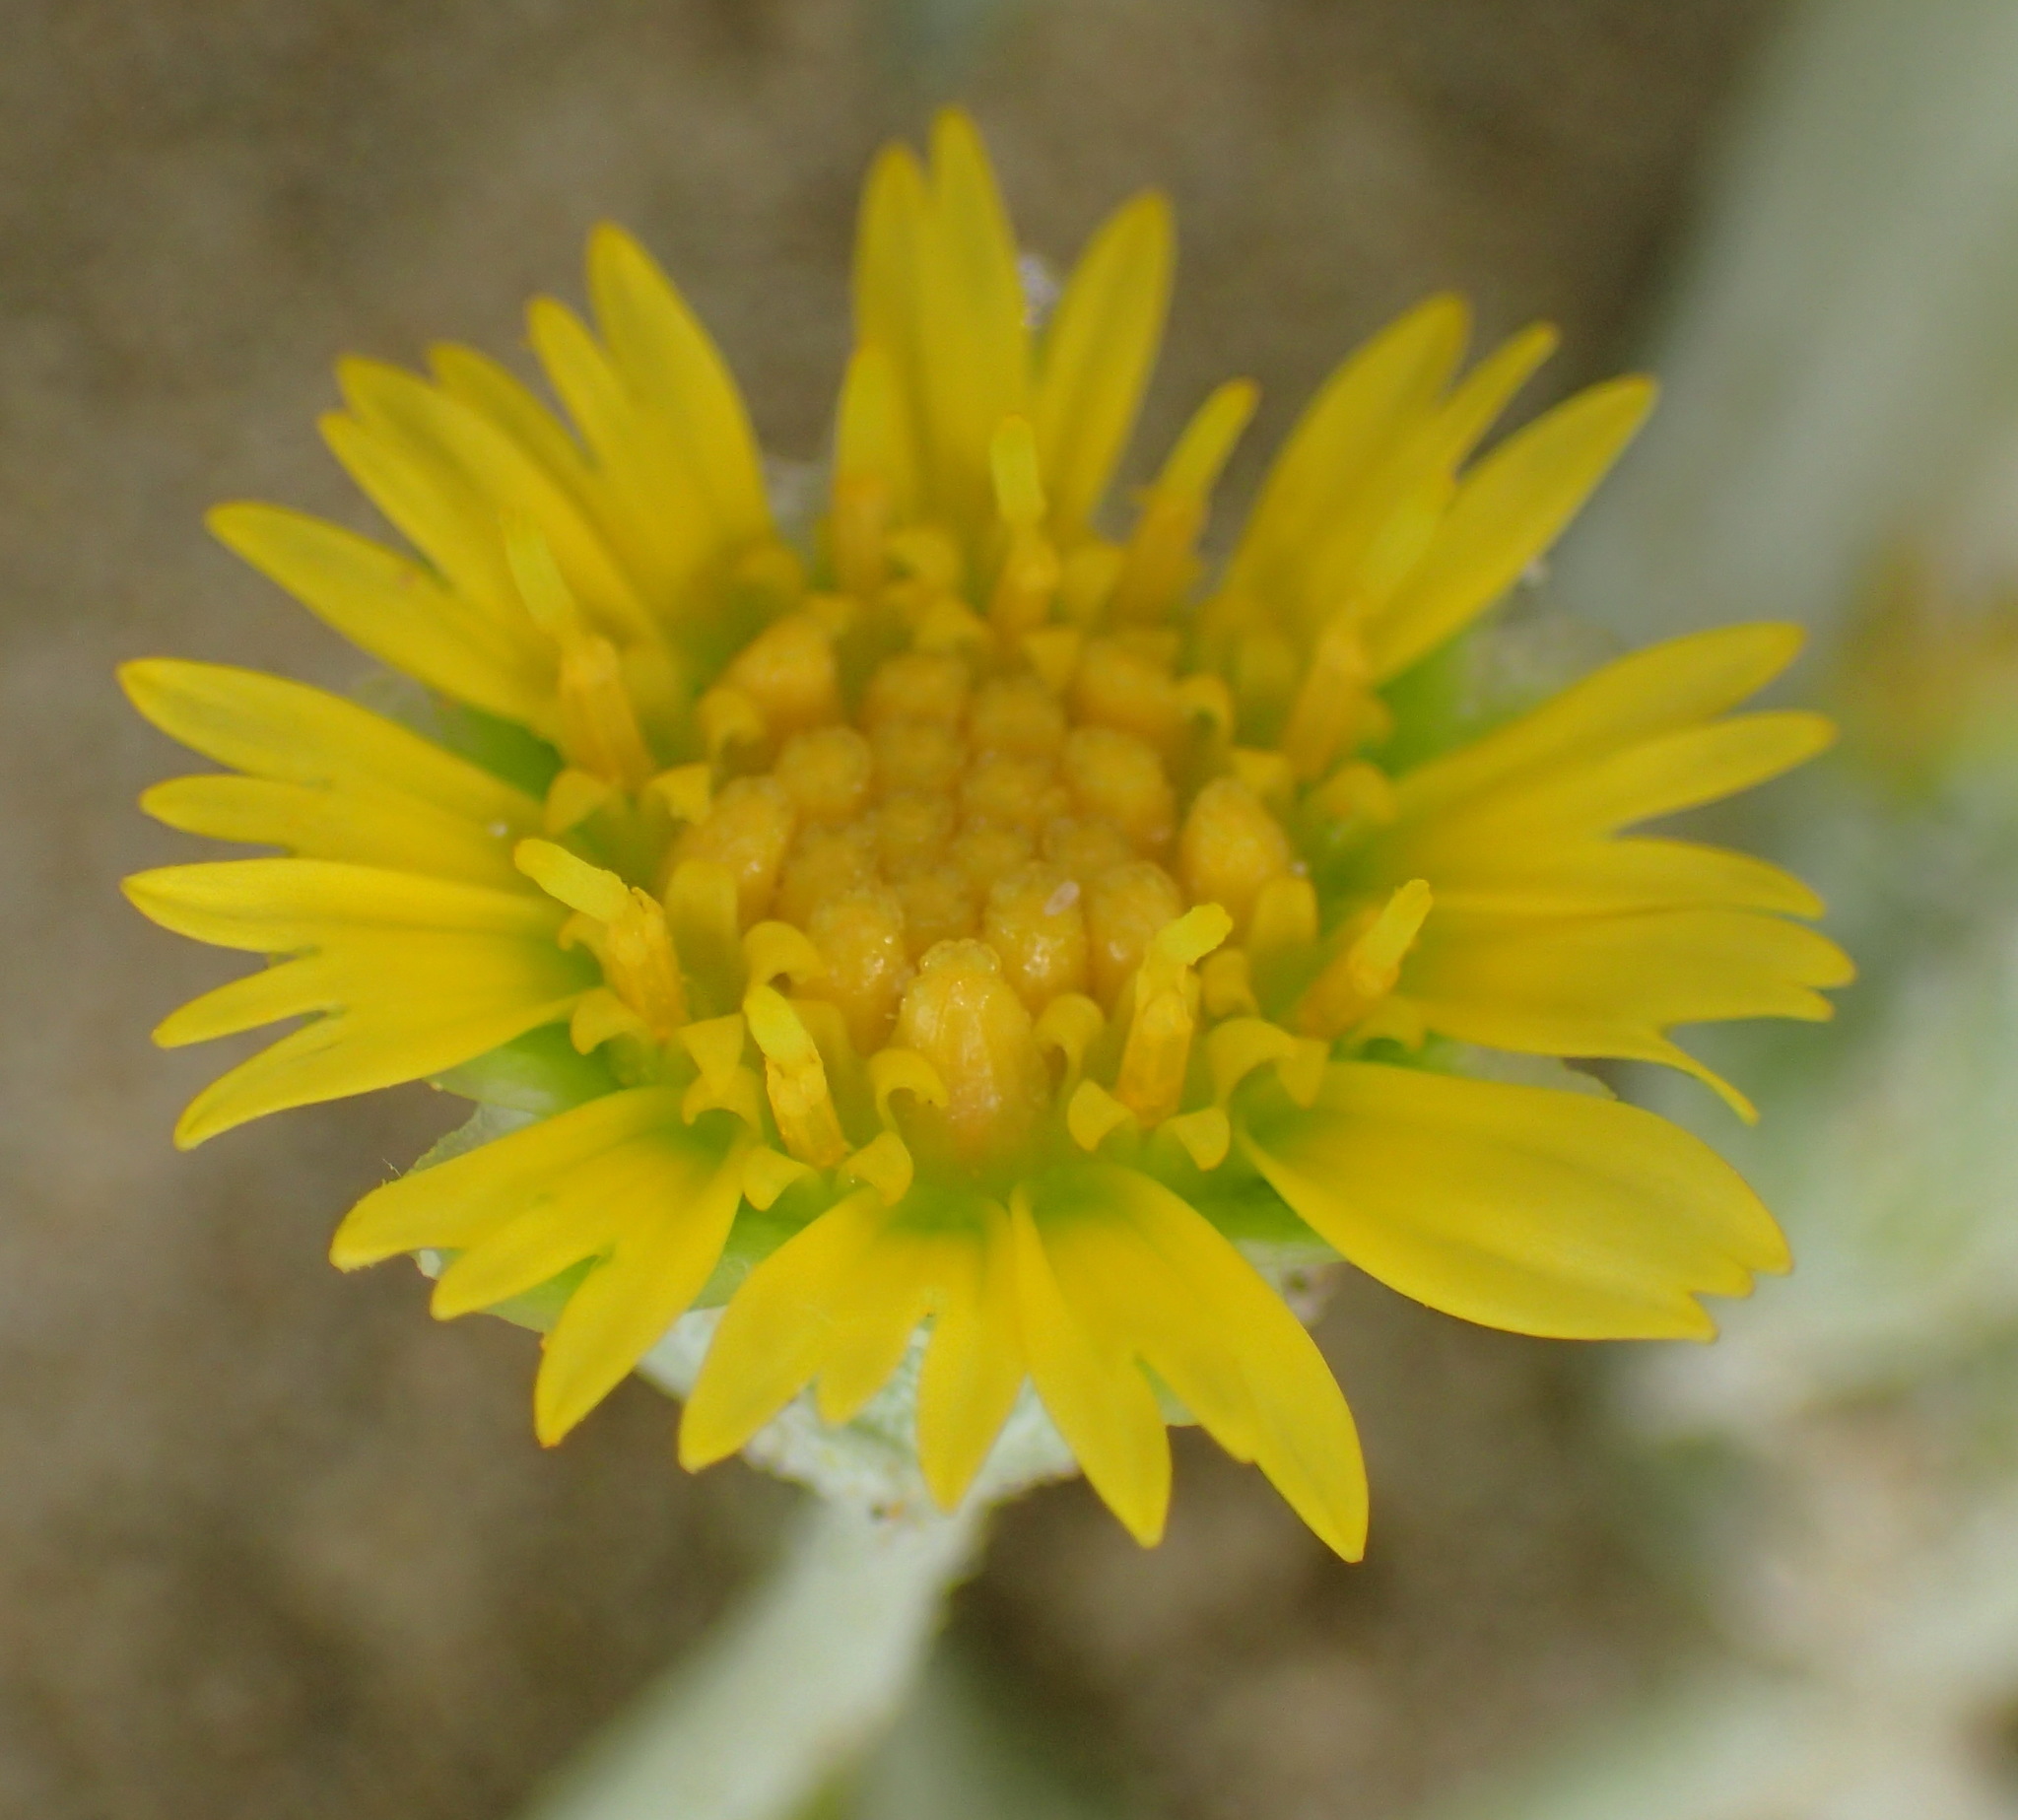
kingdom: Plantae
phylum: Tracheophyta
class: Magnoliopsida
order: Asterales
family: Asteraceae
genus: Arctotheca
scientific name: Arctotheca populifolia
